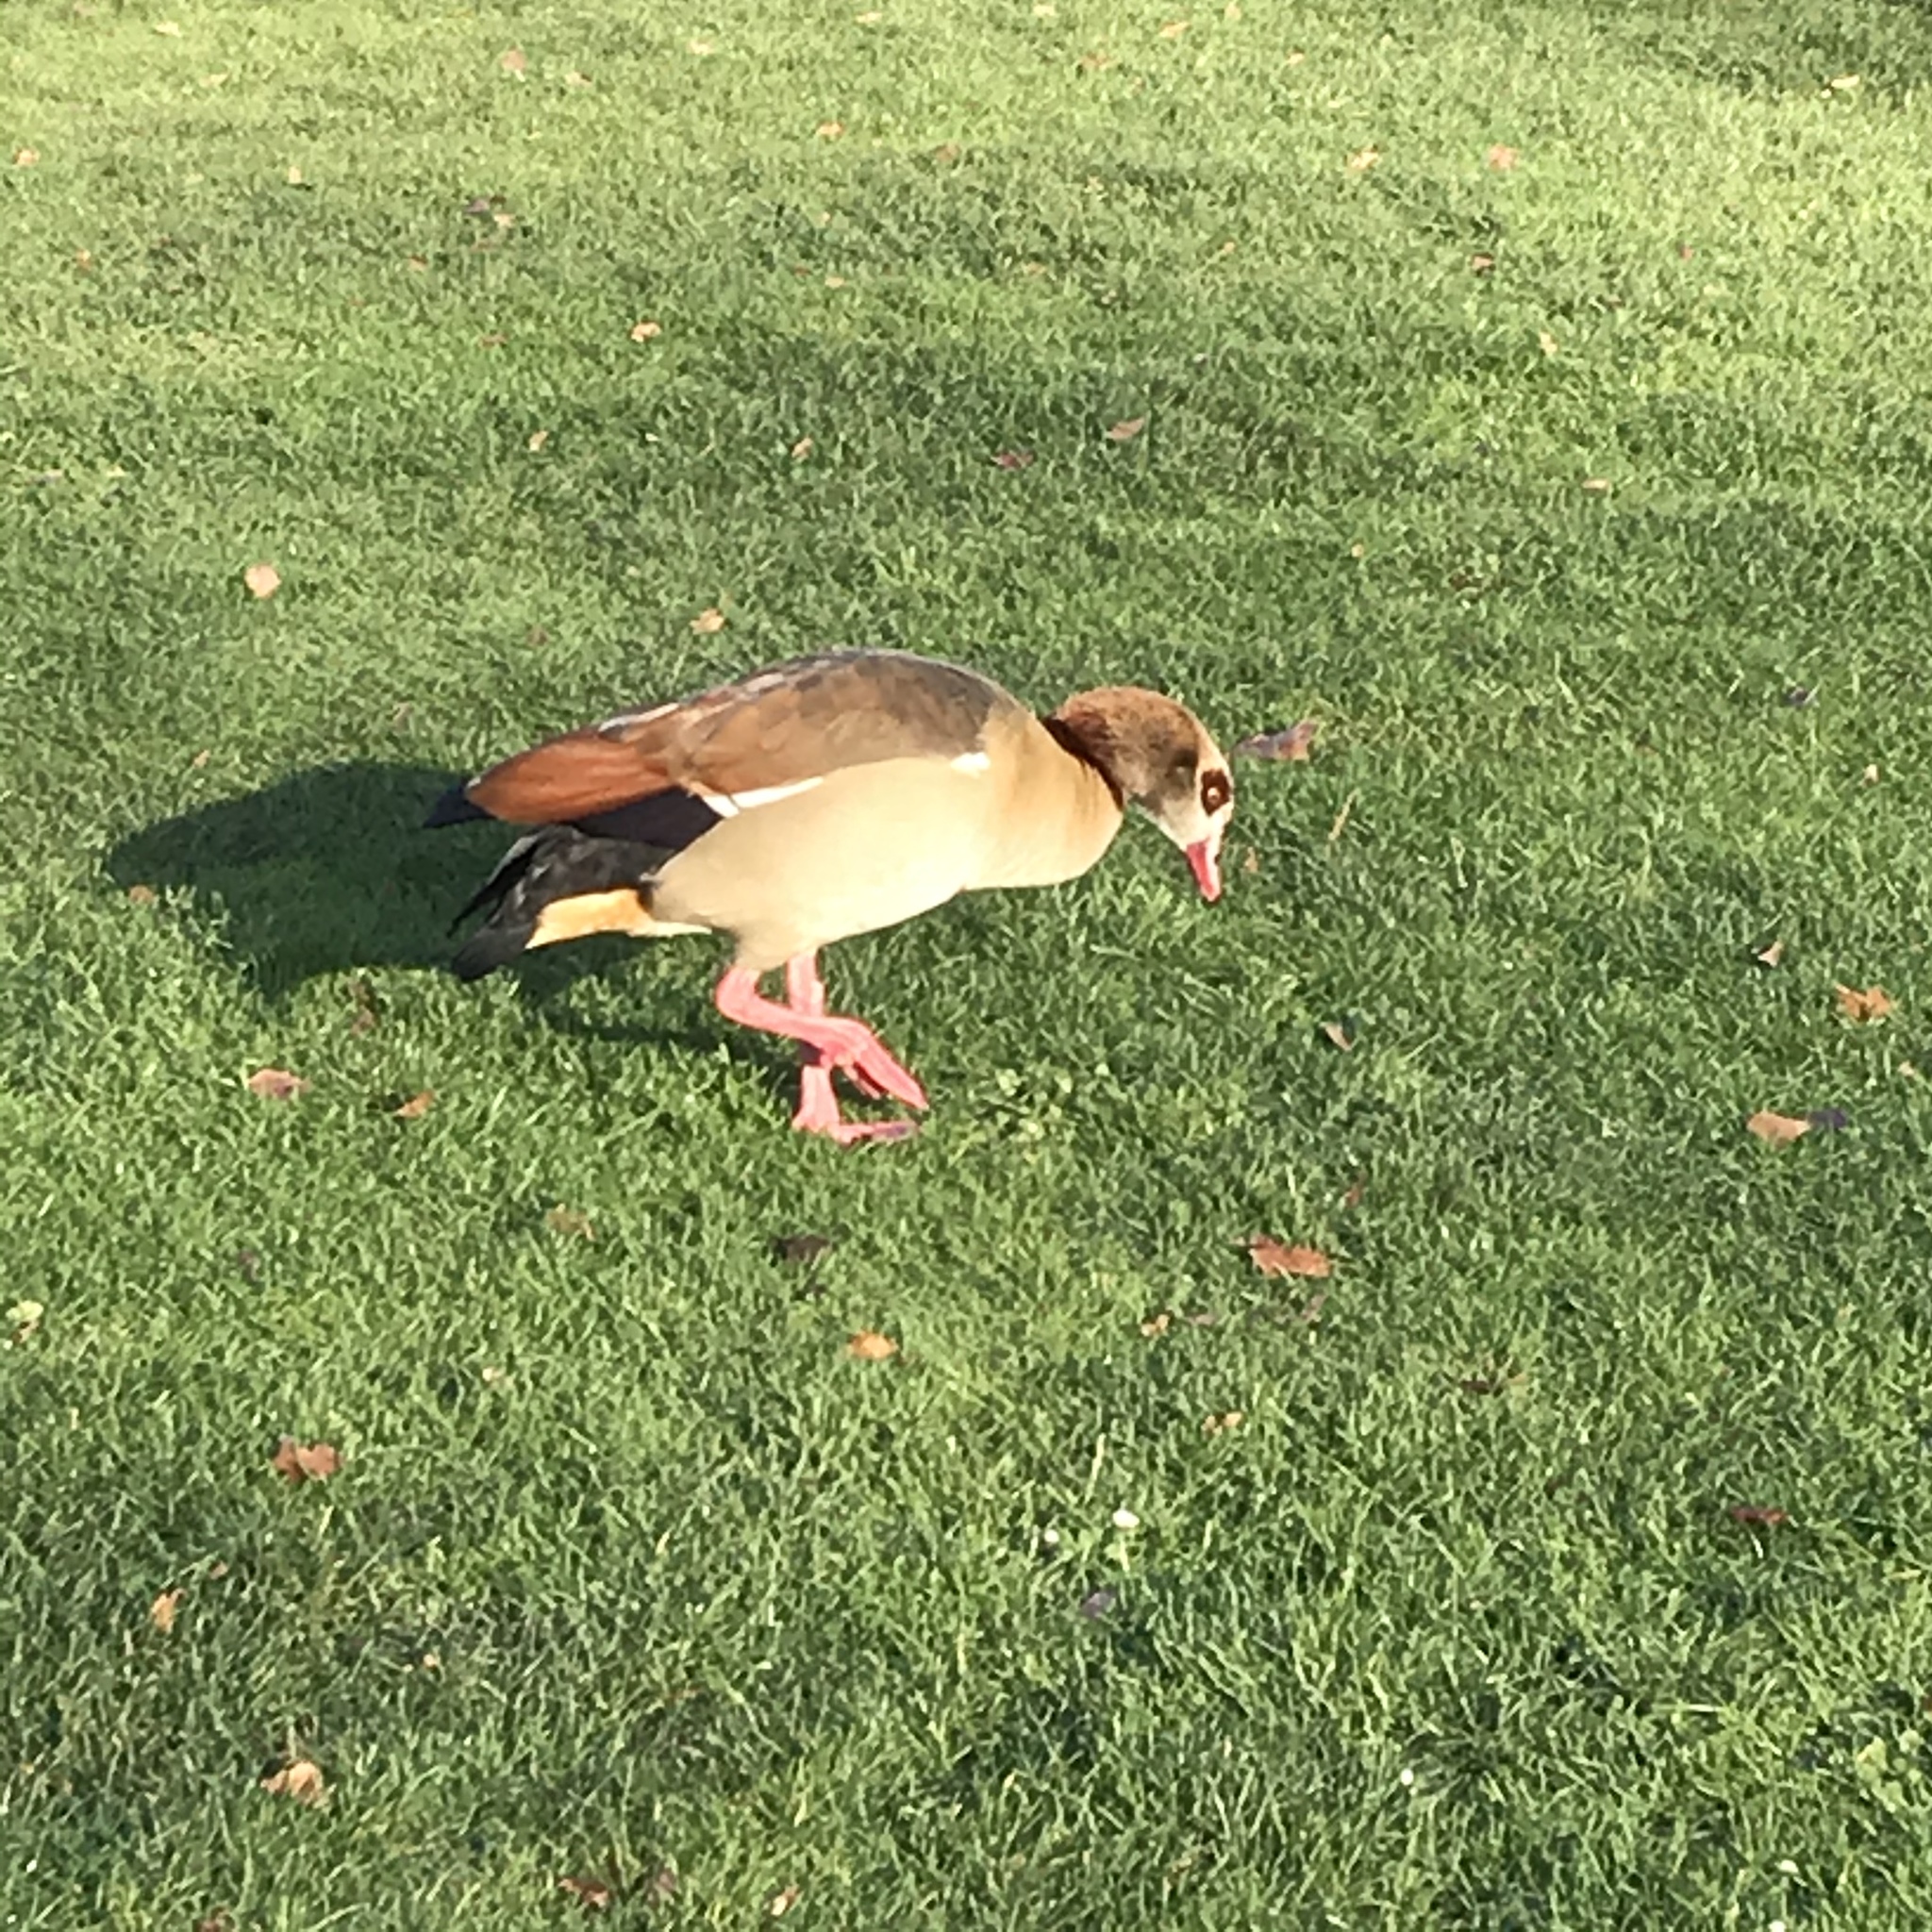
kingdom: Animalia
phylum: Chordata
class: Aves
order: Anseriformes
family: Anatidae
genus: Alopochen
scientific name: Alopochen aegyptiaca
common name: Egyptian goose
